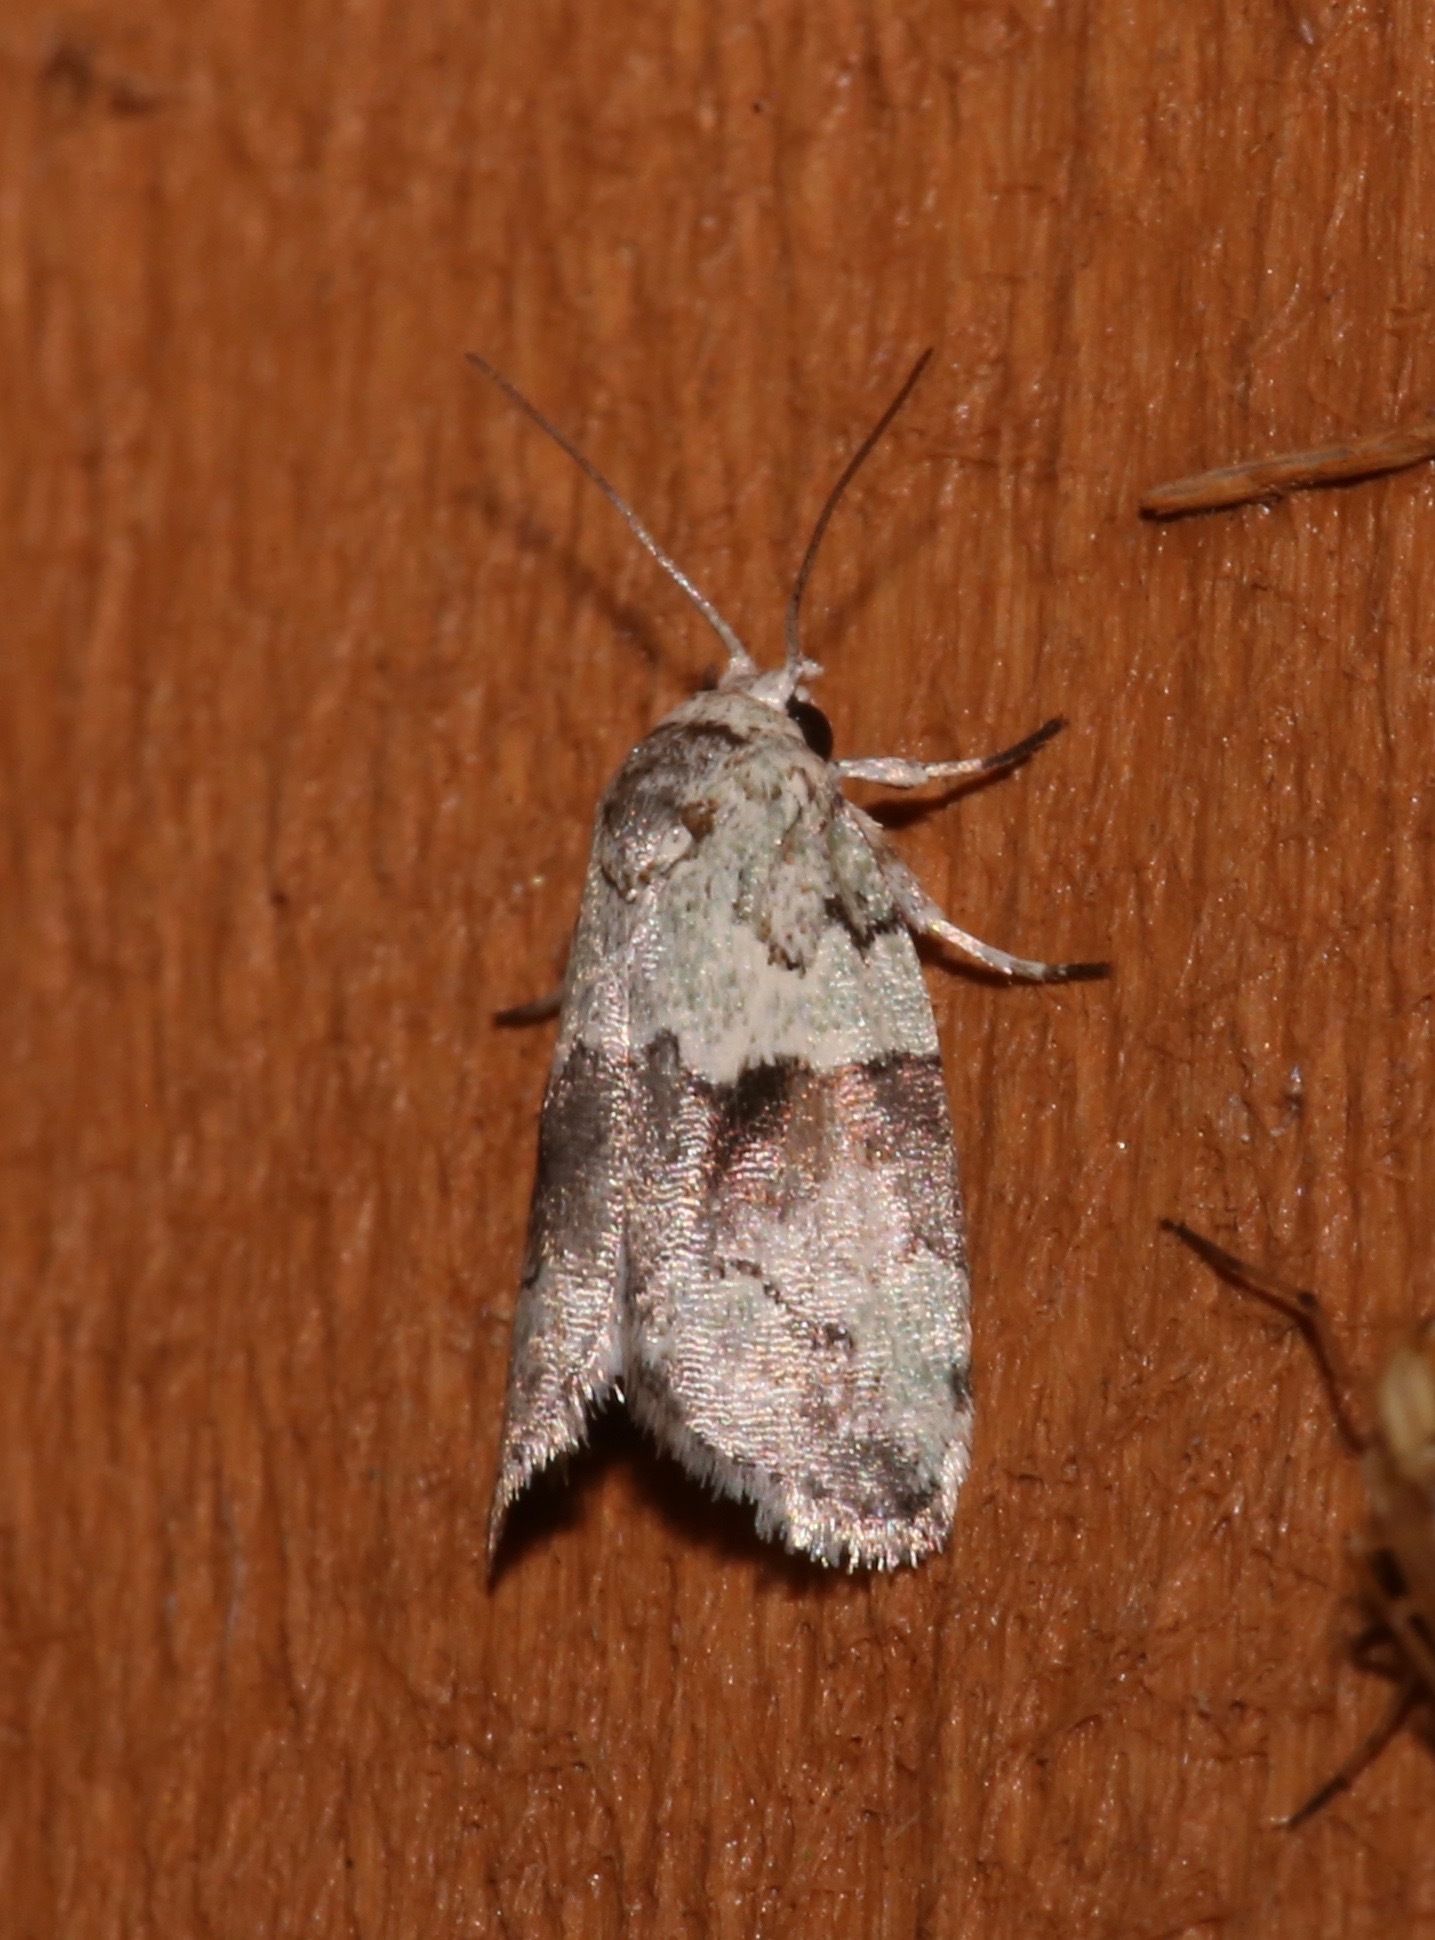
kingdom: Animalia
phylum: Arthropoda
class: Insecta
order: Lepidoptera
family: Nolidae
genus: Afrida
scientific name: Afrida ydatodes
